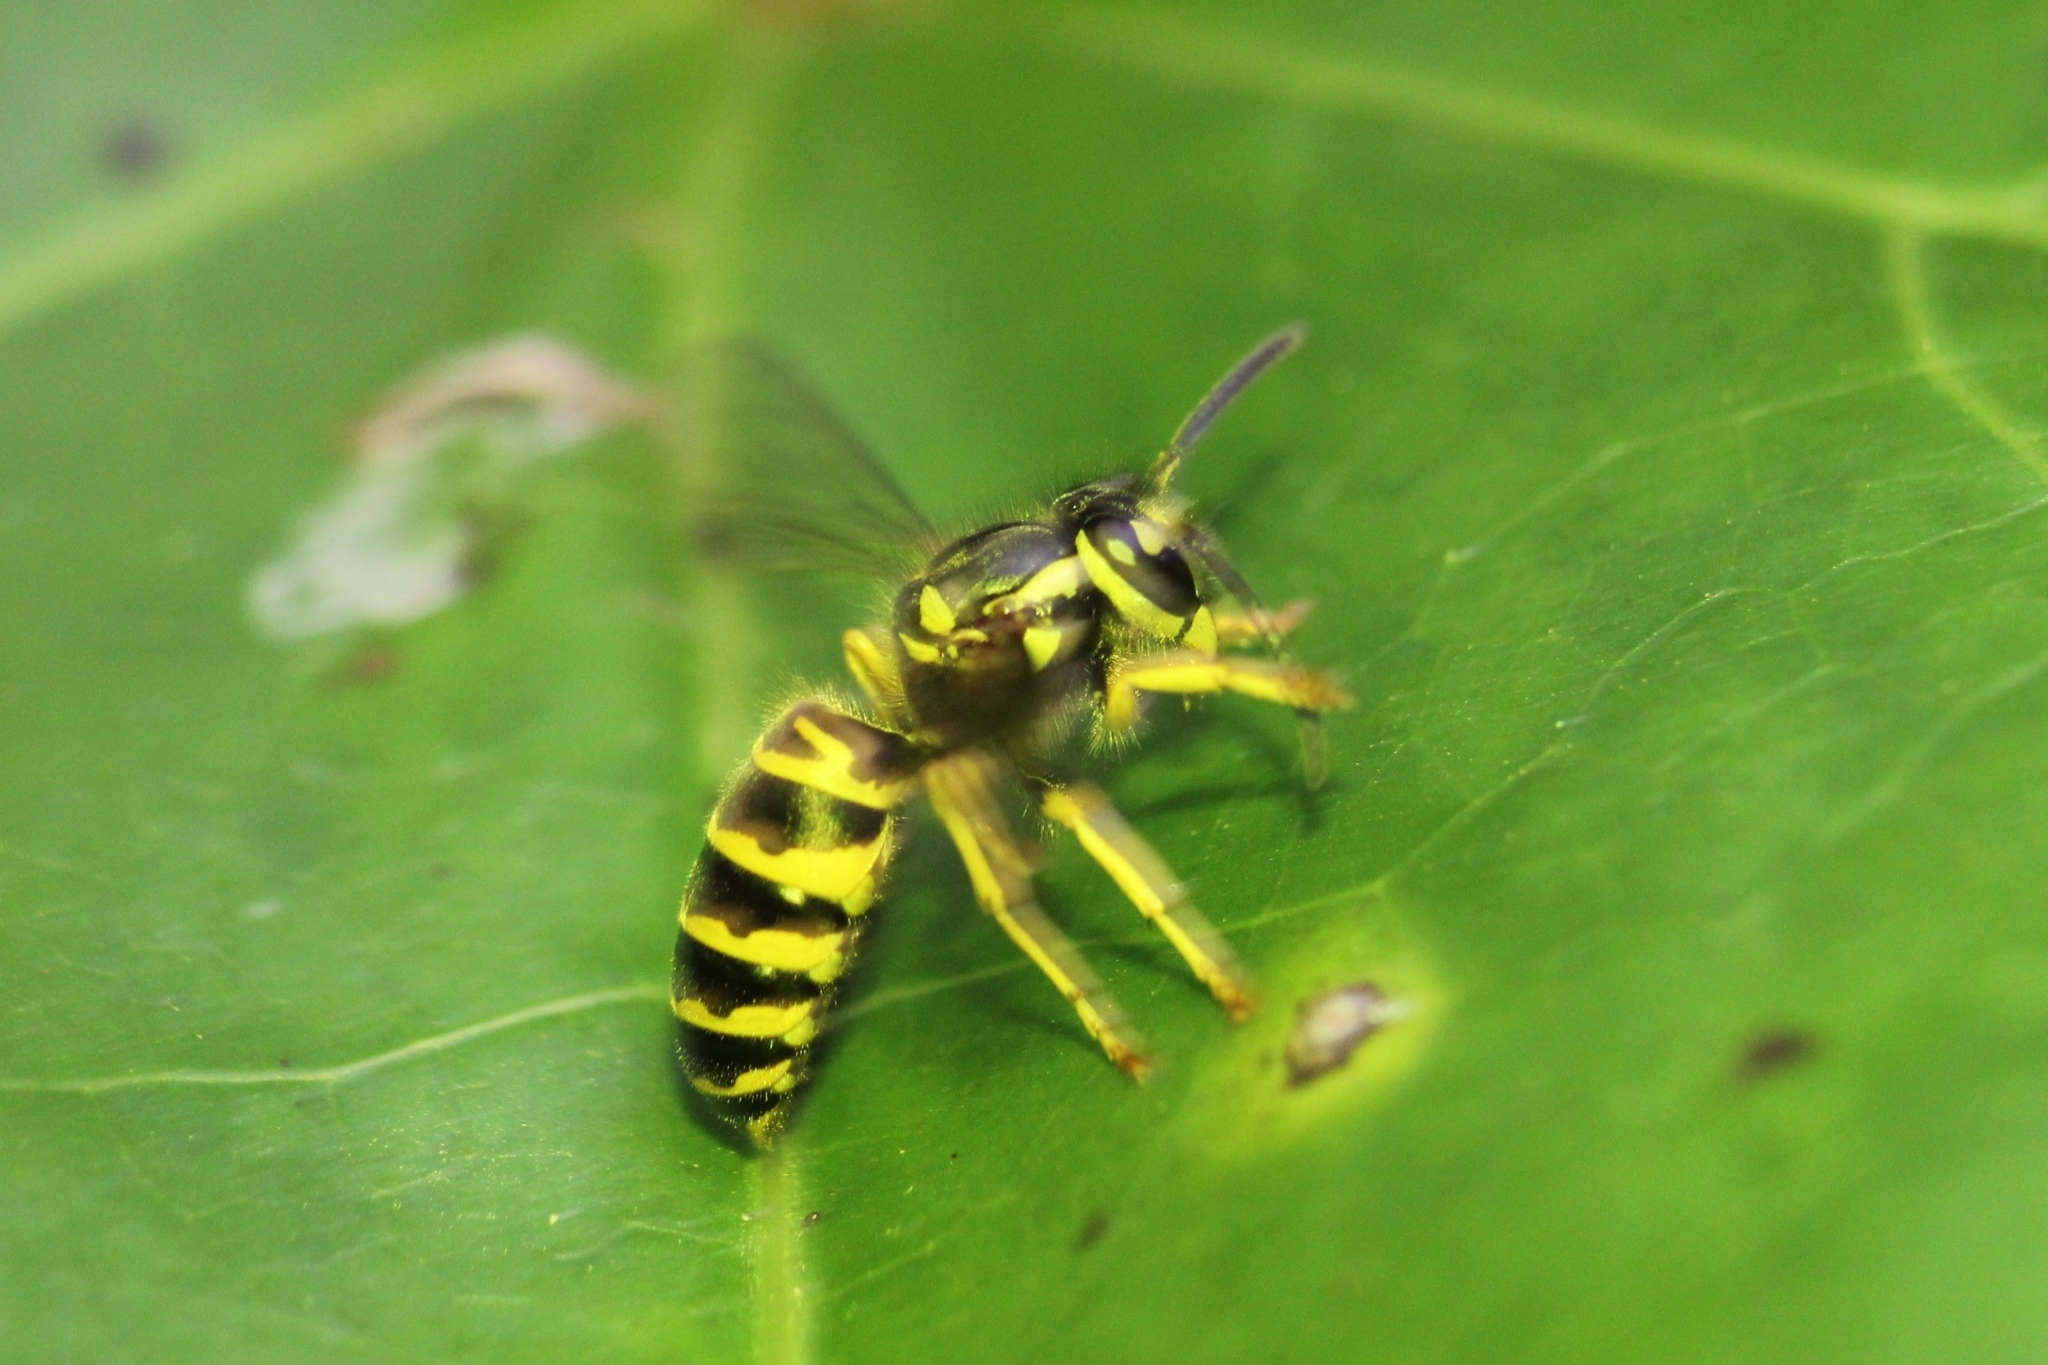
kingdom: Animalia
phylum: Arthropoda
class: Insecta
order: Hymenoptera
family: Vespidae
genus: Vespula
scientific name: Vespula maculifrons
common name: Eastern yellowjacket
